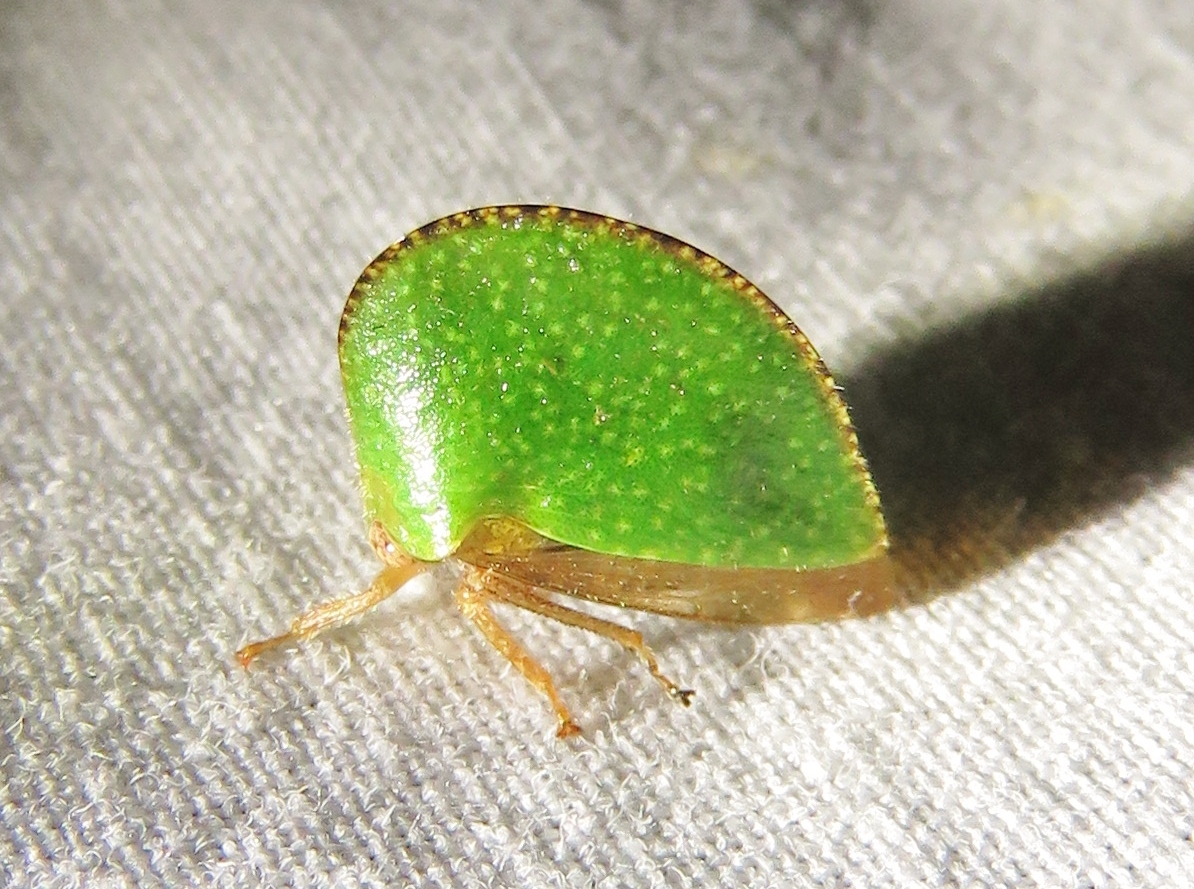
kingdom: Animalia
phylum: Arthropoda
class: Insecta
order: Hemiptera
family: Membracidae
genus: Archasia
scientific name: Archasia auriculata
